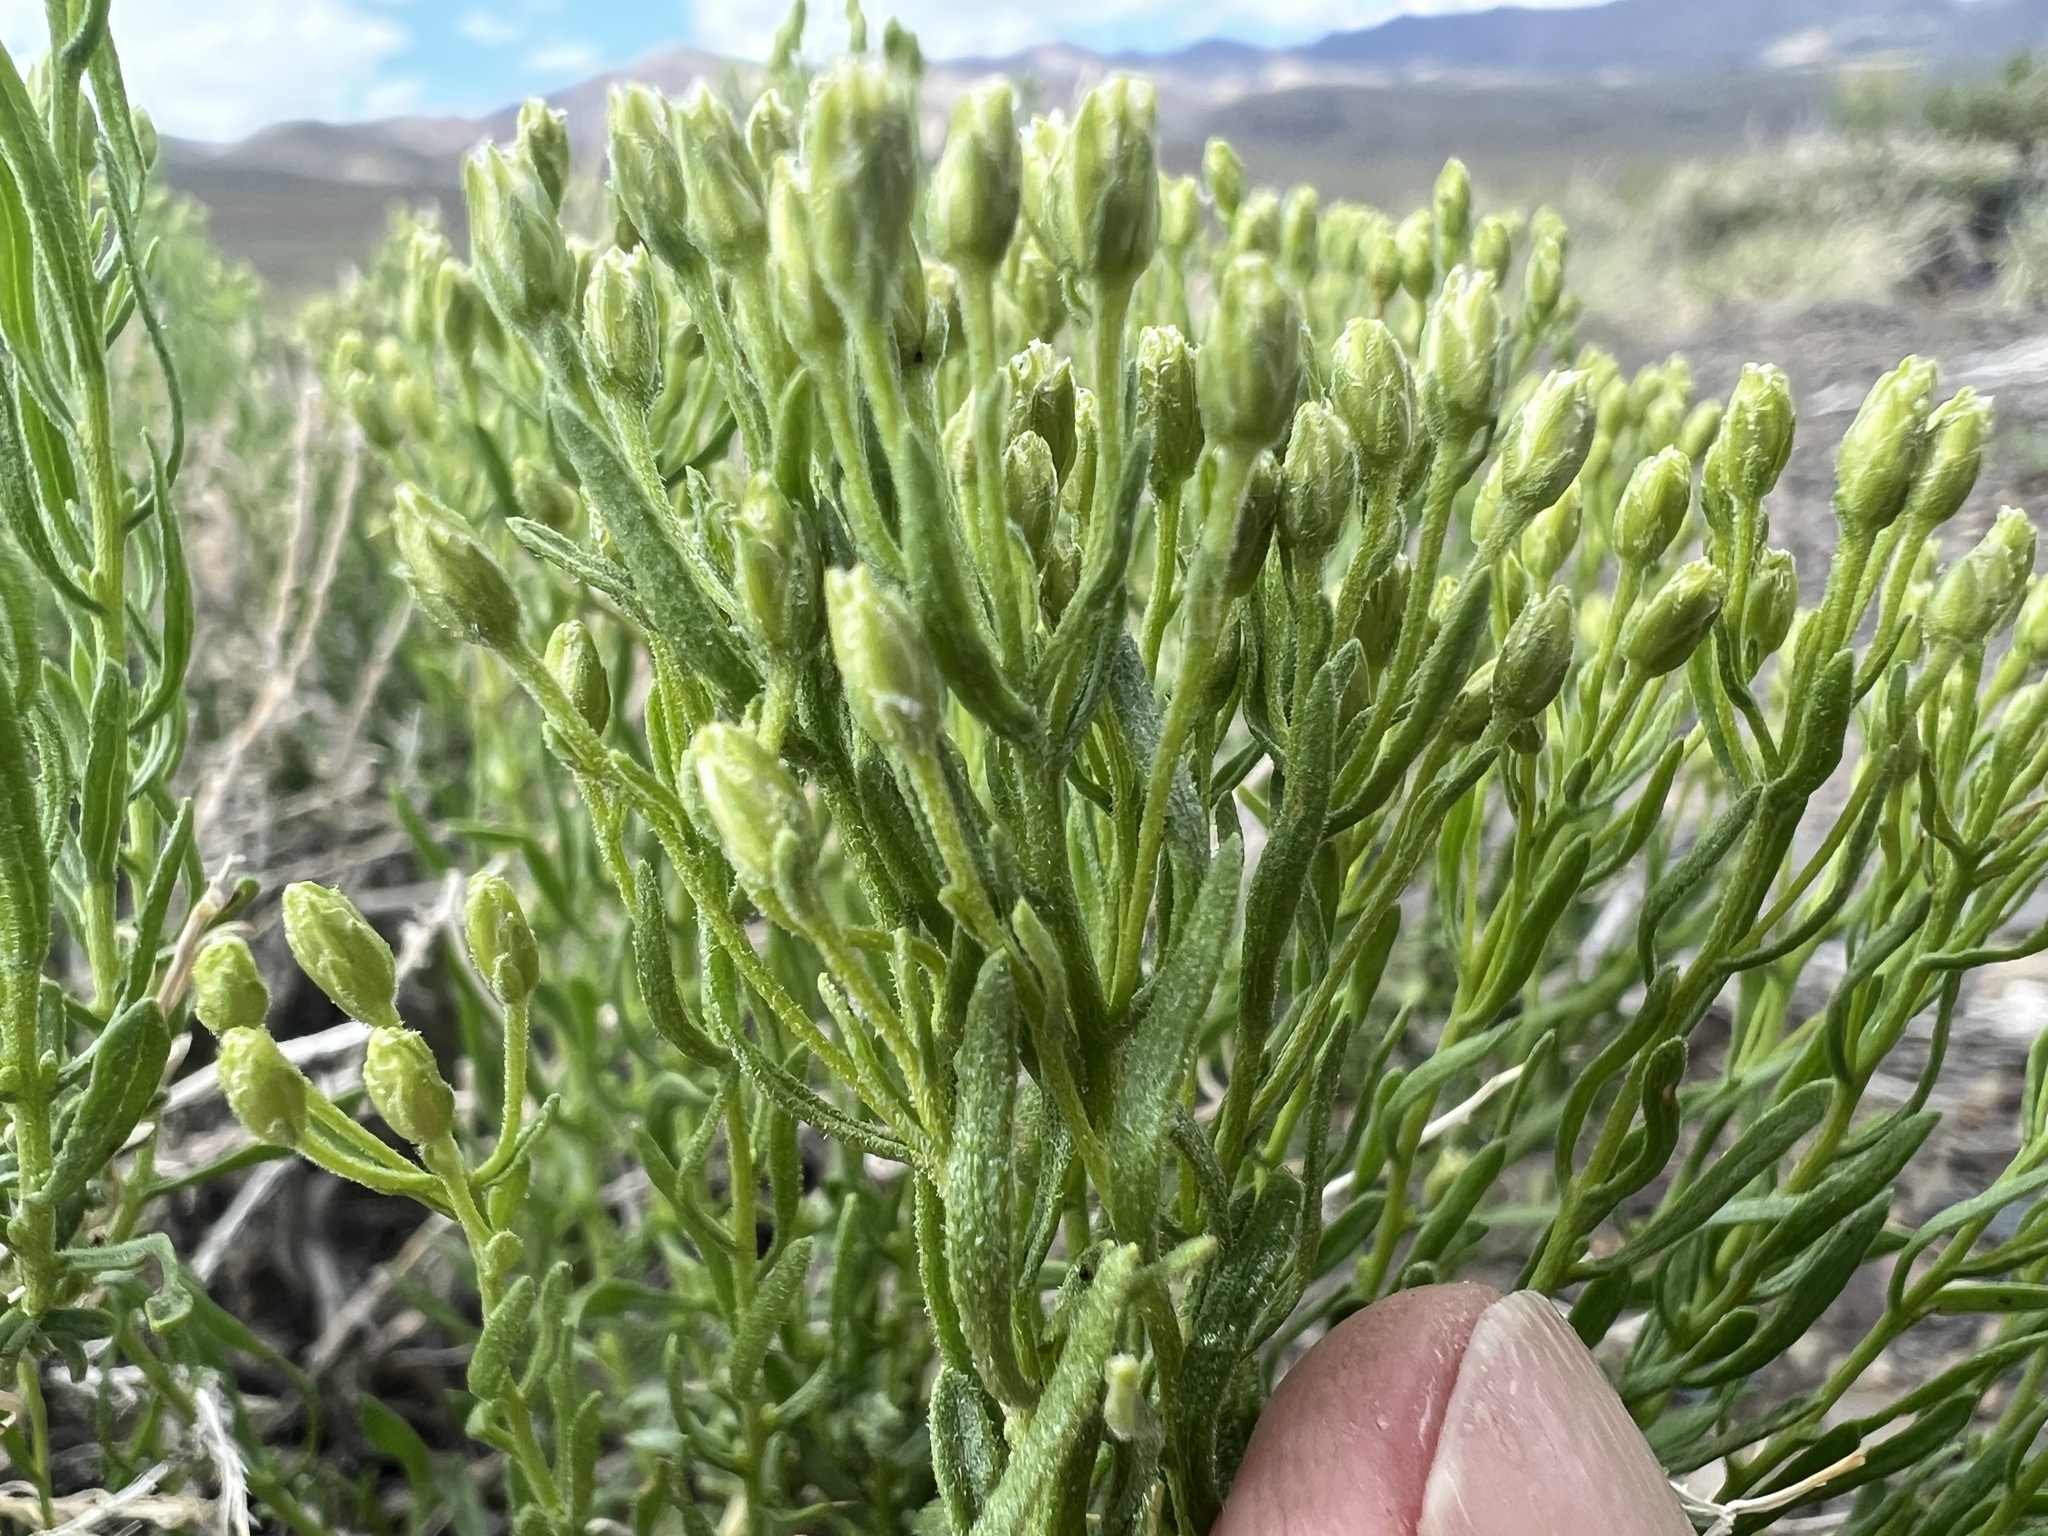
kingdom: Plantae
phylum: Tracheophyta
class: Magnoliopsida
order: Asterales
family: Asteraceae
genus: Ericameria
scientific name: Ericameria cooperi
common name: Cooper's goldenbush
